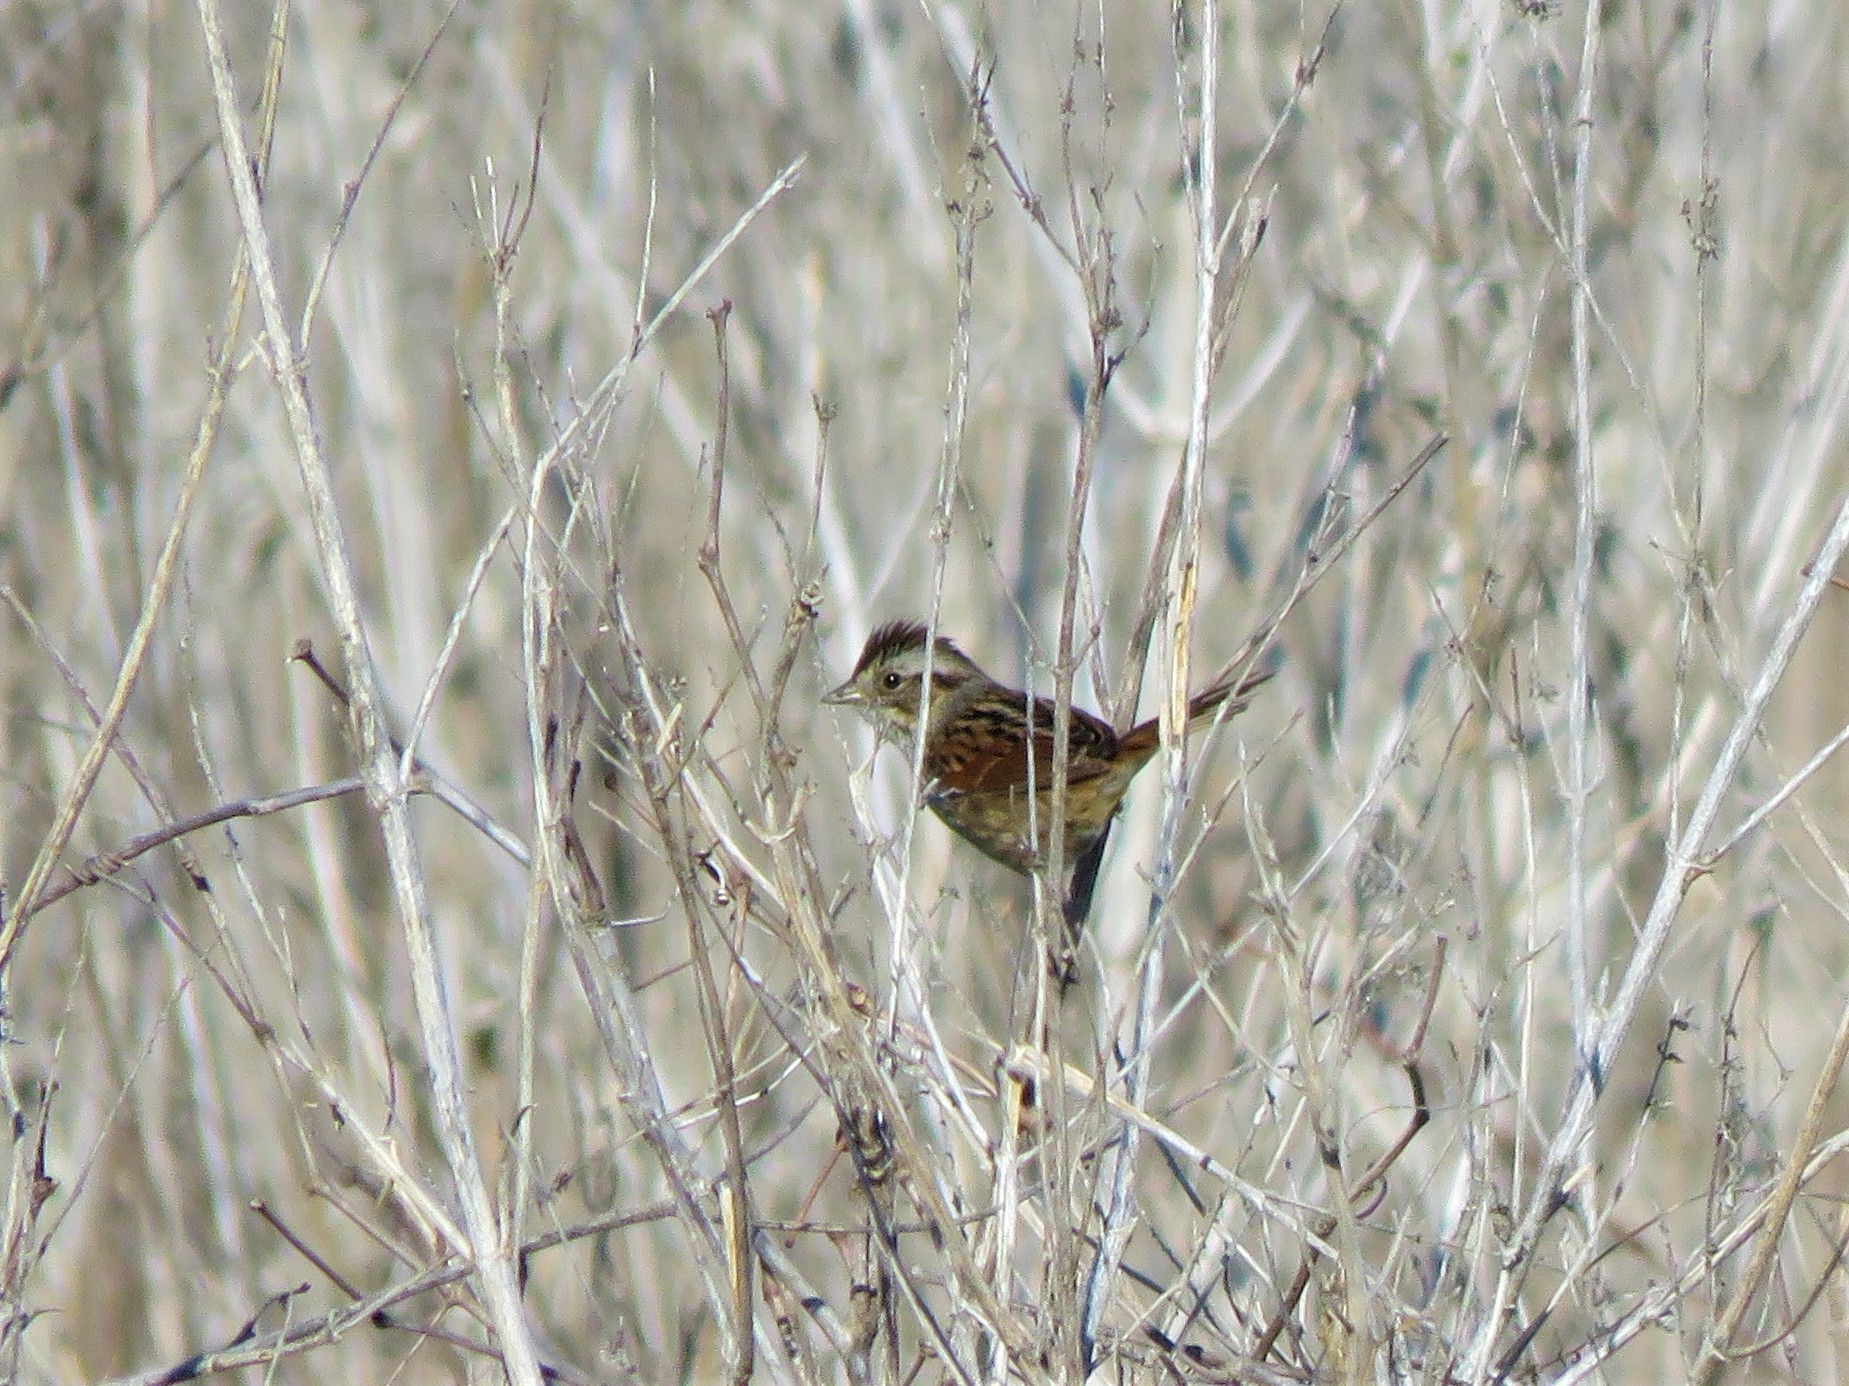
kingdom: Animalia
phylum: Chordata
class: Aves
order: Passeriformes
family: Passerellidae
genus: Melospiza
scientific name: Melospiza georgiana
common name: Swamp sparrow
